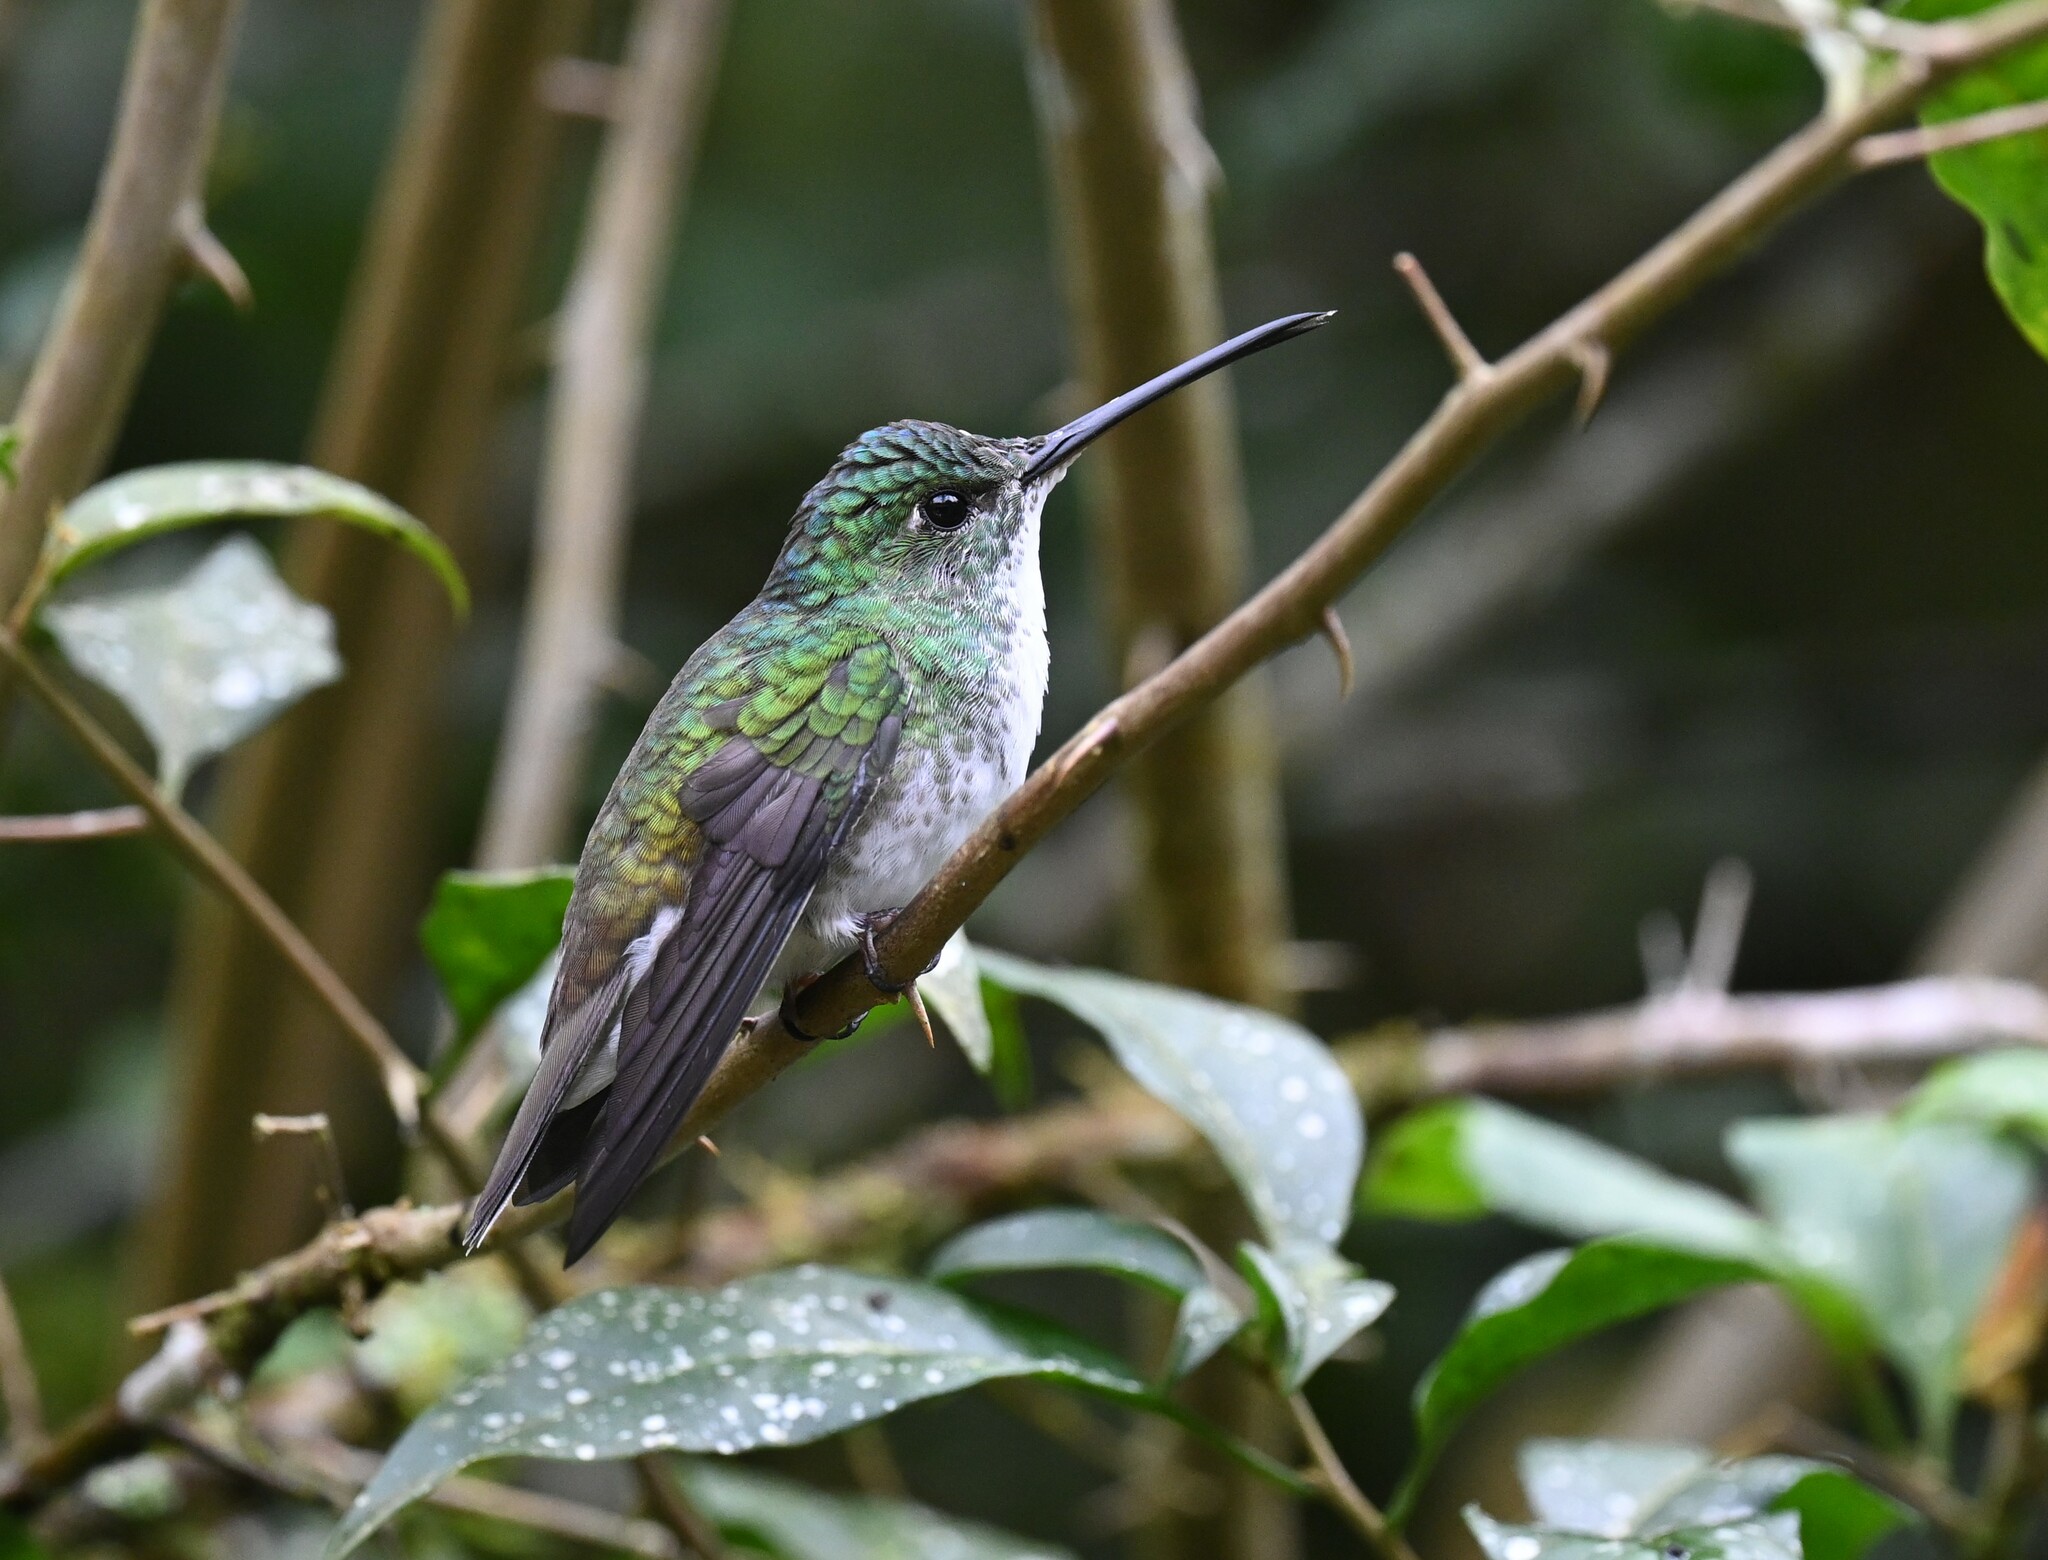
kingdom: Animalia
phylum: Chordata
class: Aves
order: Apodiformes
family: Trochilidae
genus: Uranomitra
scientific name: Uranomitra franciae
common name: Andean emerald
